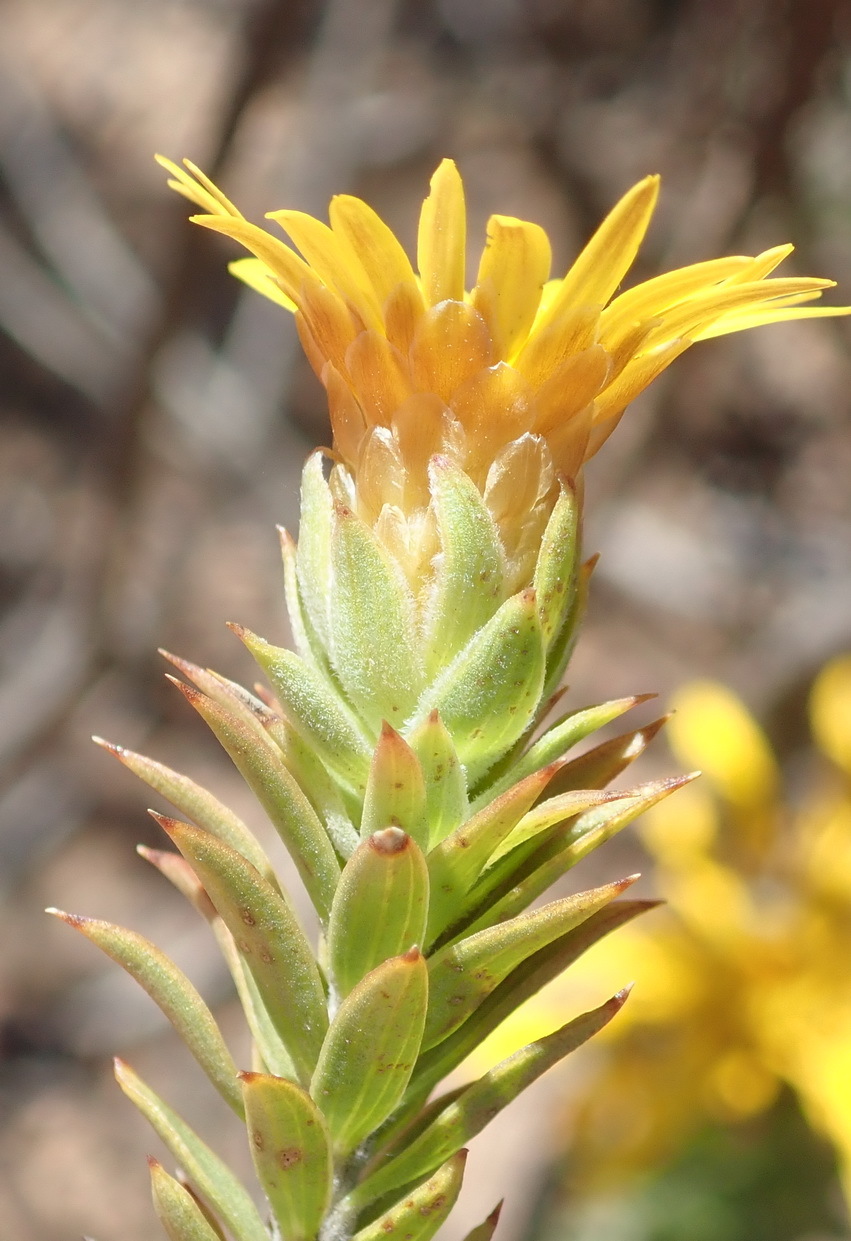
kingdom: Plantae
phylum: Tracheophyta
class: Magnoliopsida
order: Asterales
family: Asteraceae
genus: Oedera
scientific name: Oedera calycina
